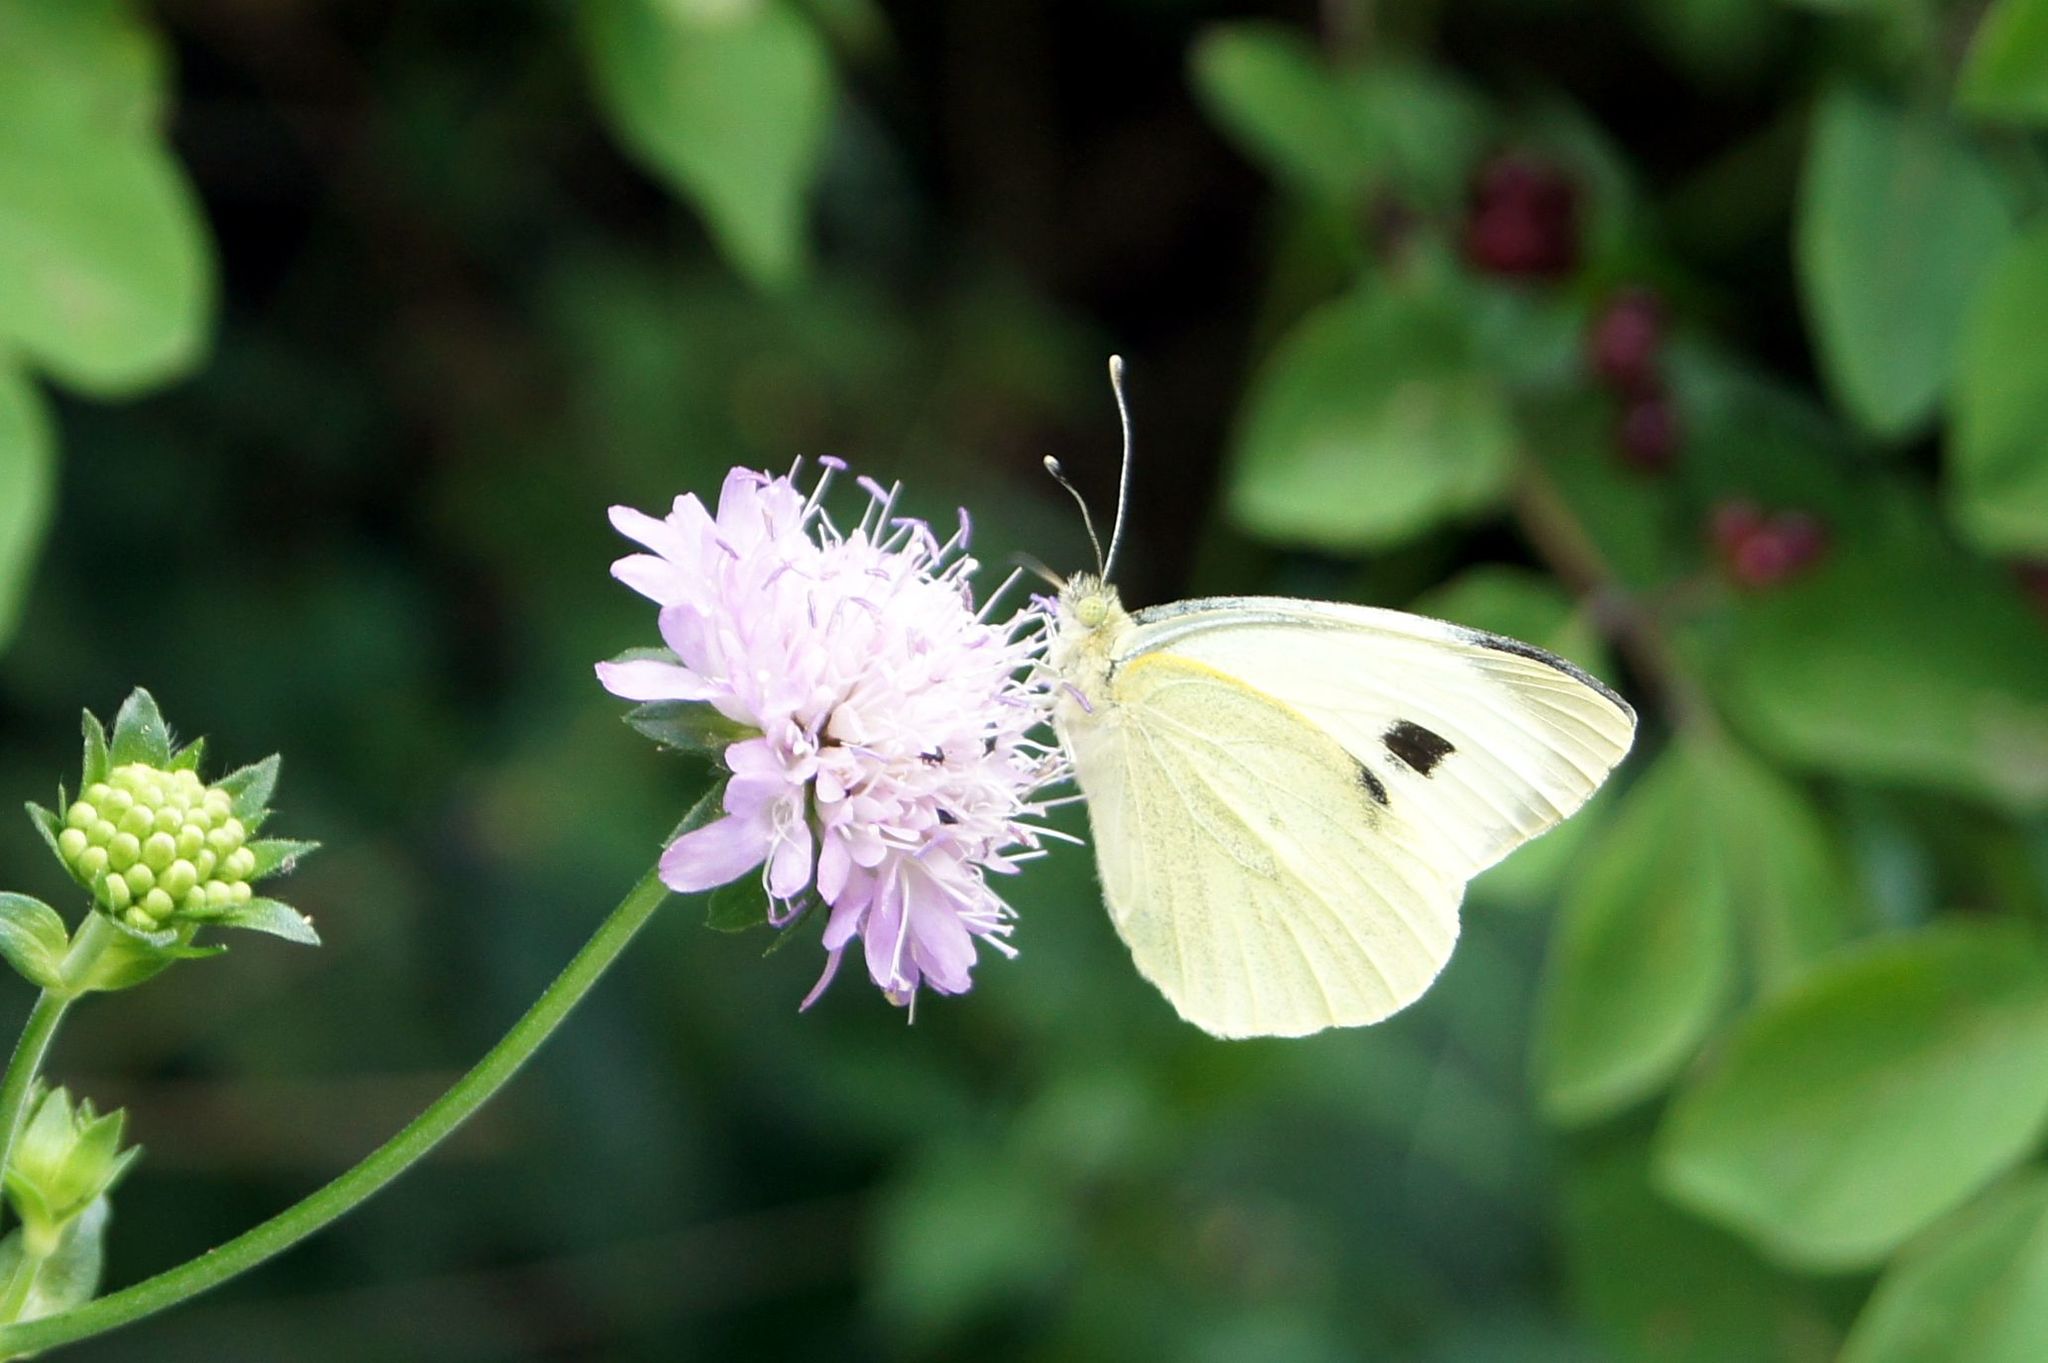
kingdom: Animalia
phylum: Arthropoda
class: Insecta
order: Lepidoptera
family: Pieridae
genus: Pieris
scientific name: Pieris brassicae
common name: Large white
